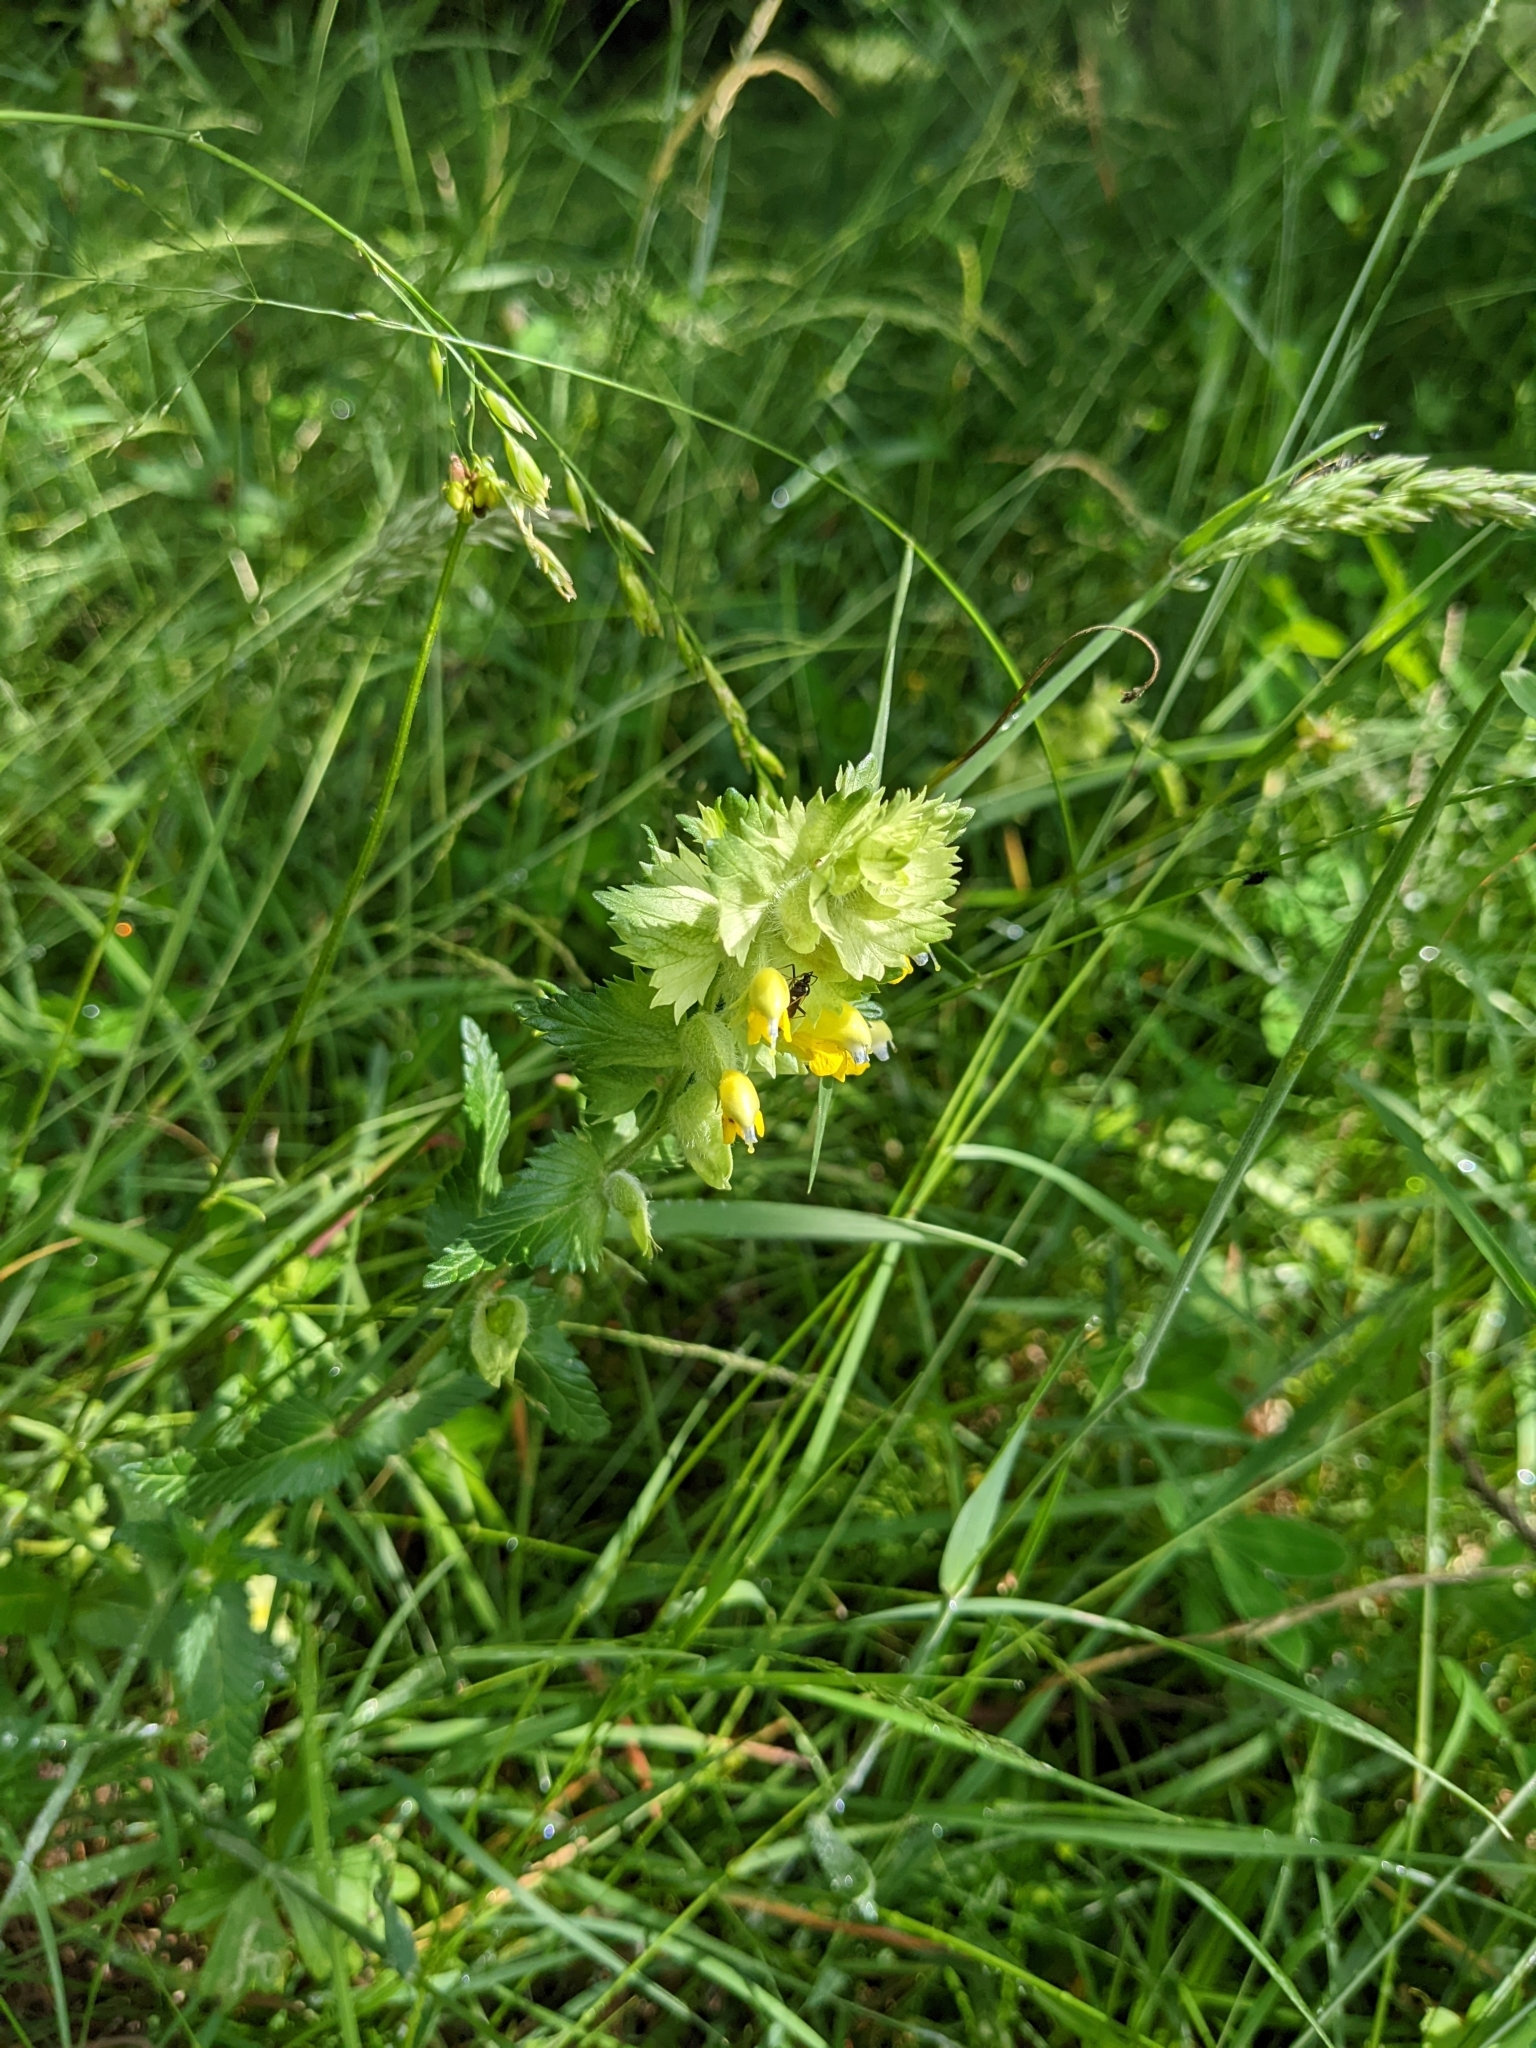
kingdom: Plantae
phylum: Tracheophyta
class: Magnoliopsida
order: Lamiales
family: Orobanchaceae
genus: Rhinanthus
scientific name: Rhinanthus alectorolophus
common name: Greater yellow-rattle
